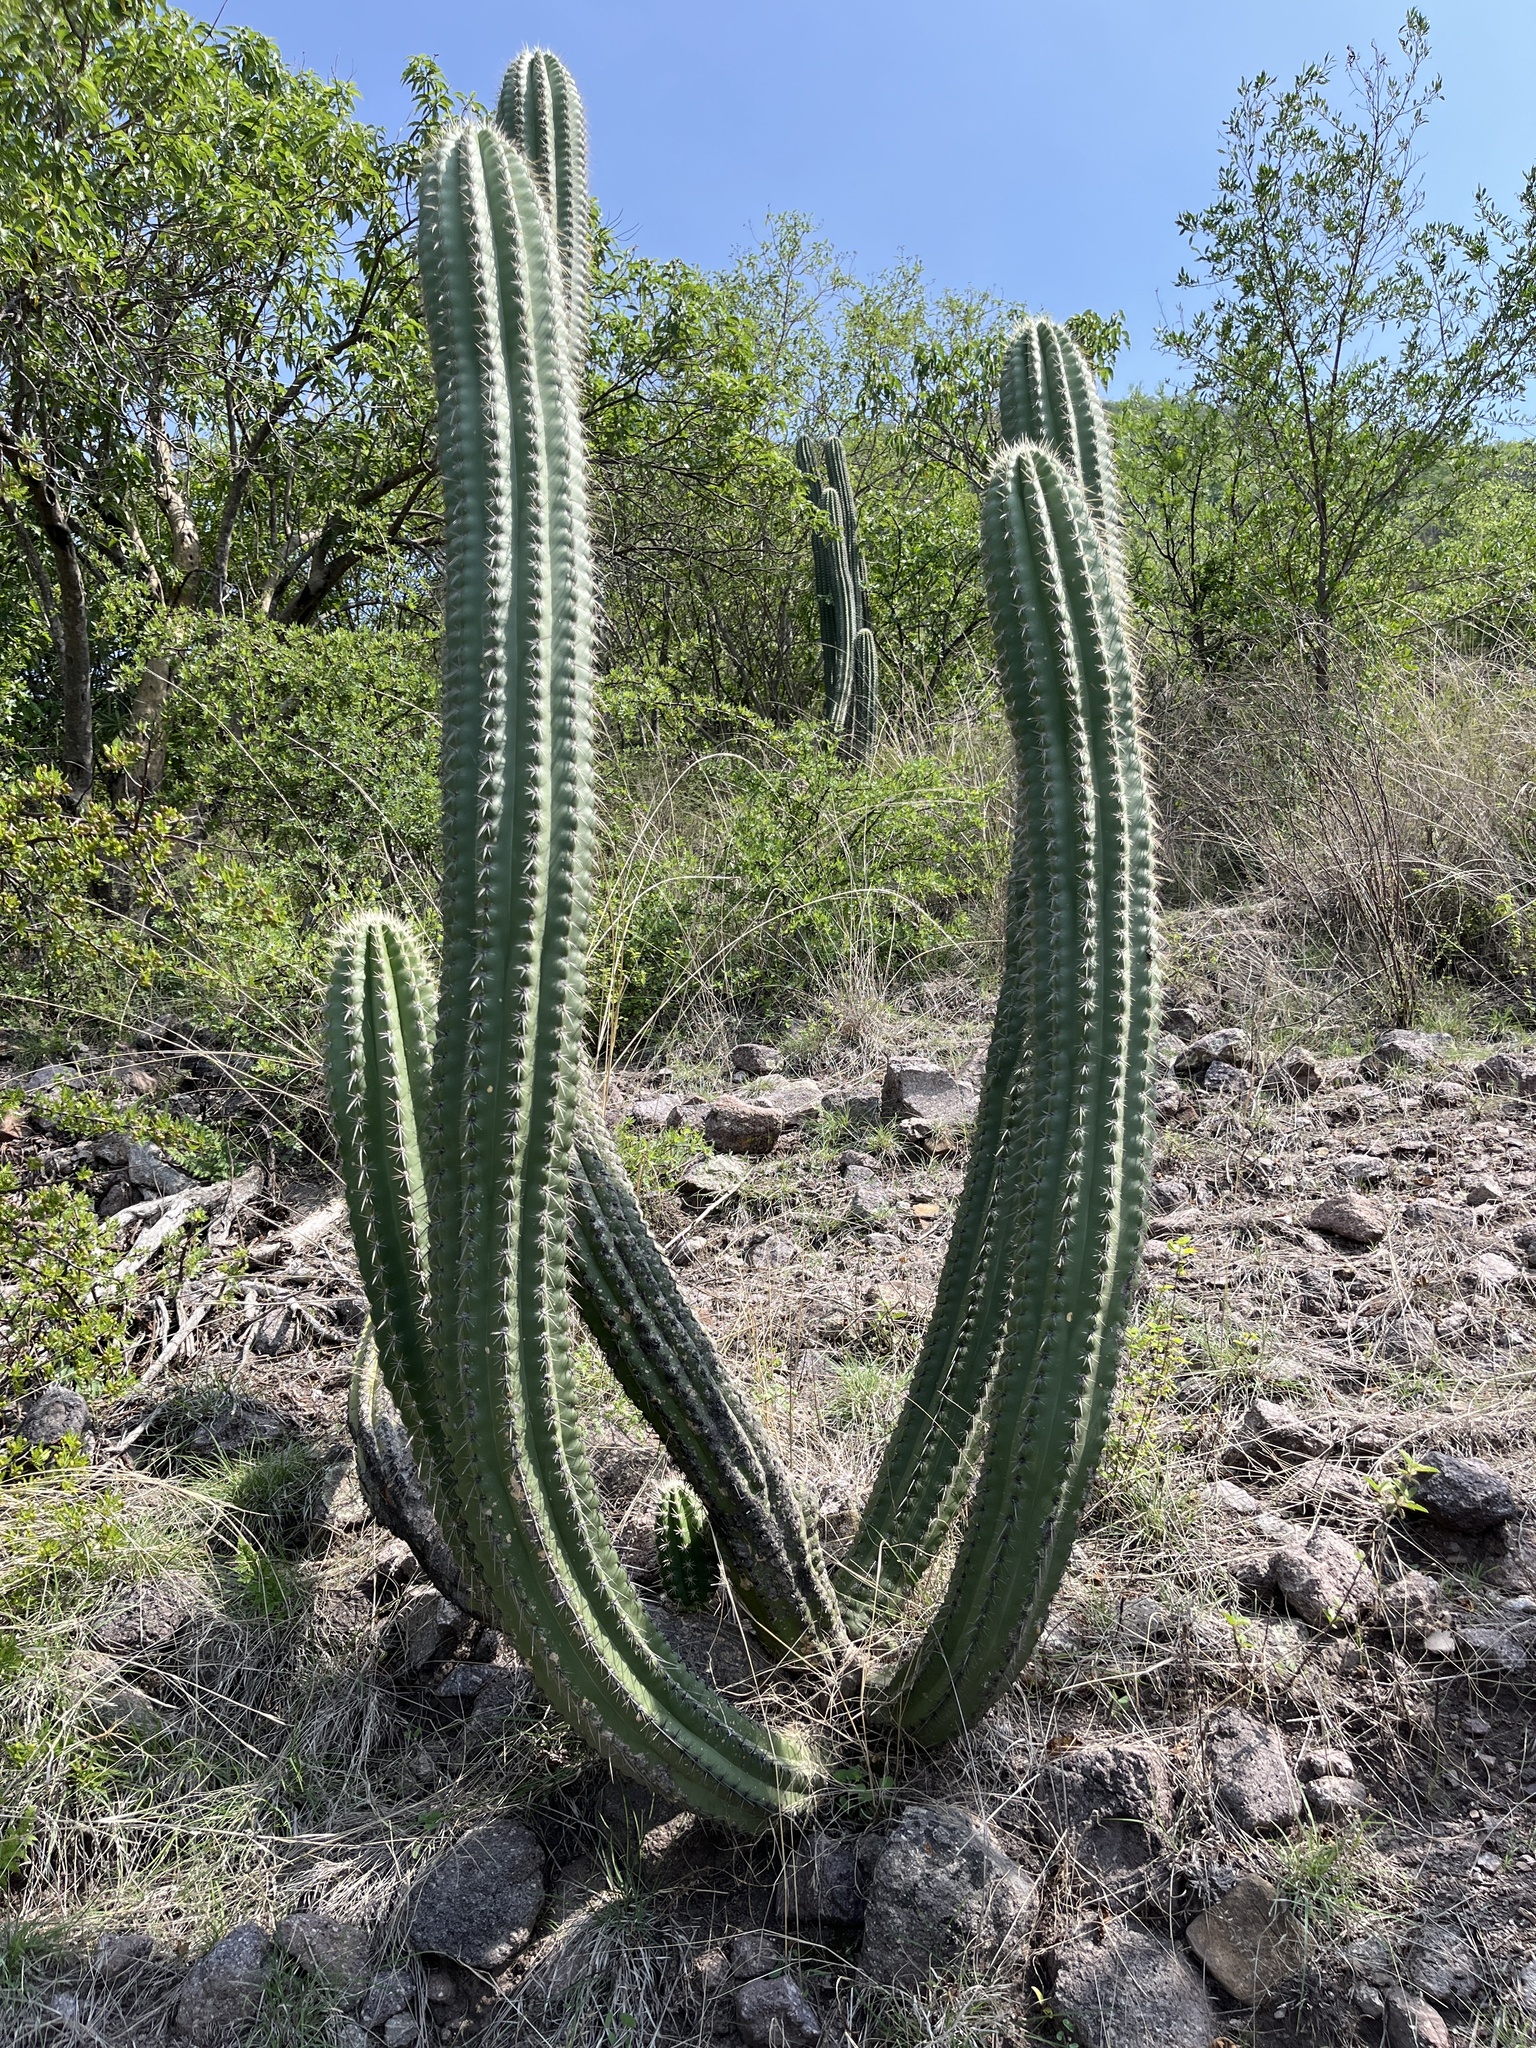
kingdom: Plantae
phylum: Tracheophyta
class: Magnoliopsida
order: Caryophyllales
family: Cactaceae
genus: Stenocereus
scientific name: Stenocereus stellatus
